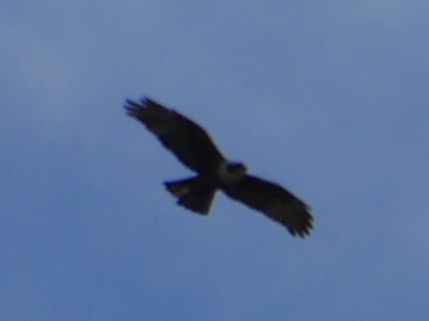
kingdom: Animalia
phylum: Chordata
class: Aves
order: Accipitriformes
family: Accipitridae
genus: Lophotriorchis
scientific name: Lophotriorchis kienerii
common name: Rufous-bellied eagle
